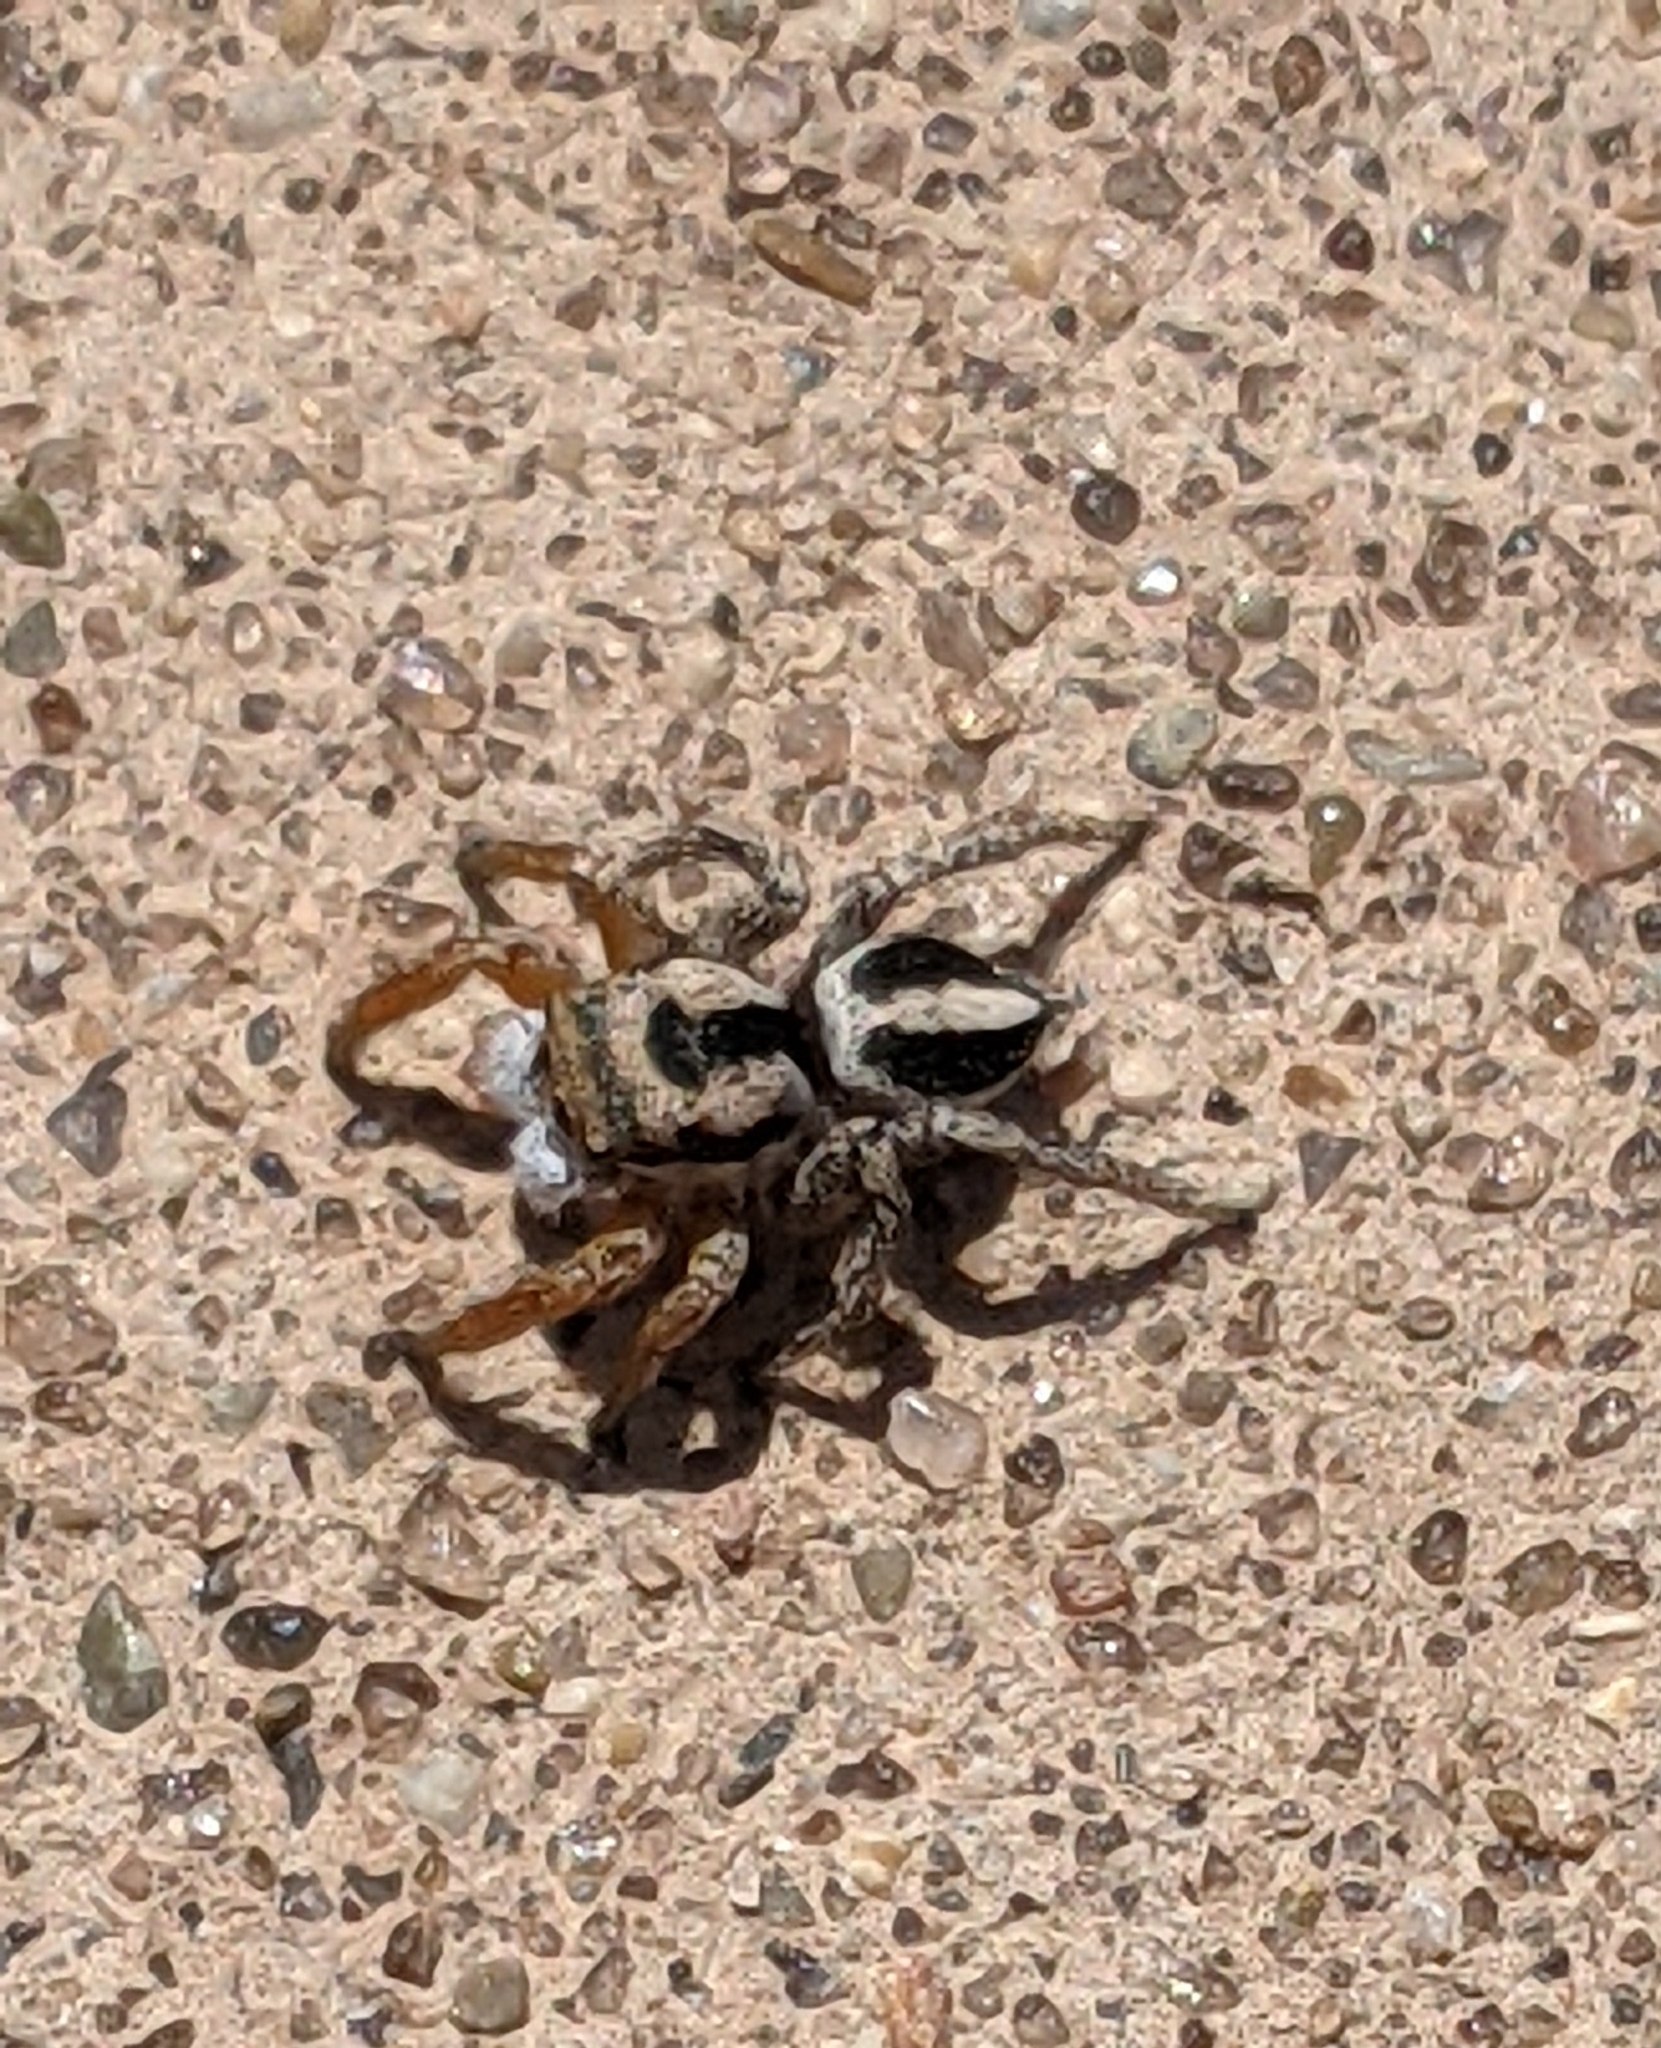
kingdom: Animalia
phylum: Arthropoda
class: Arachnida
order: Araneae
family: Salticidae
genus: Habronattus
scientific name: Habronattus icenoglei
